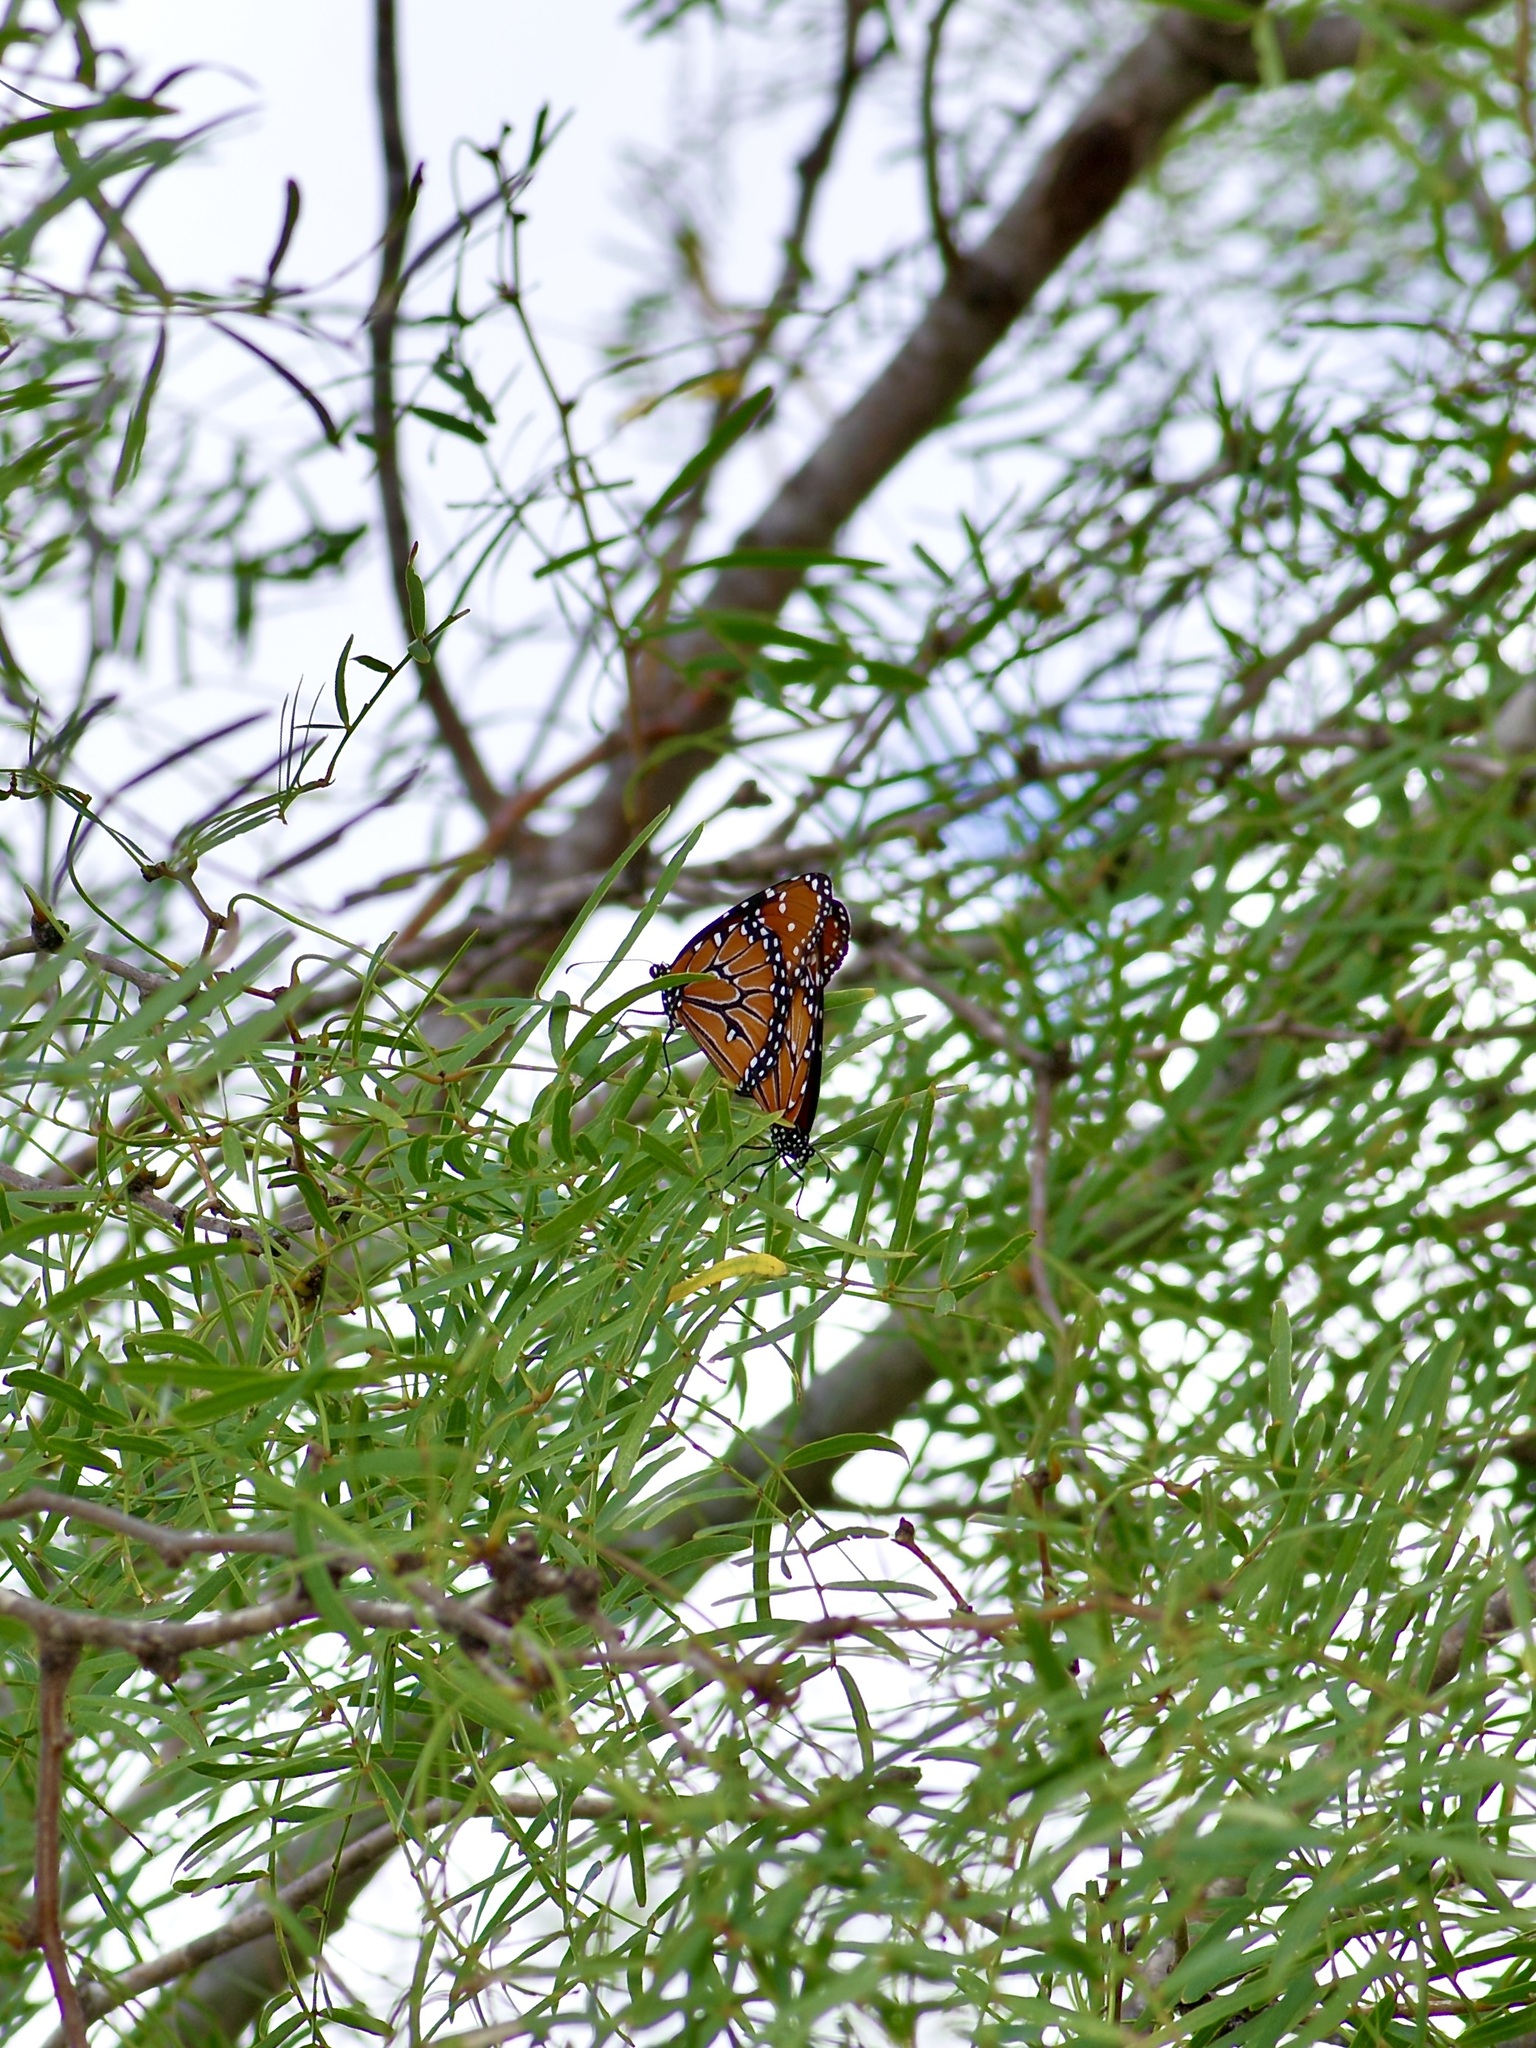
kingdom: Animalia
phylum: Arthropoda
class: Insecta
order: Lepidoptera
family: Nymphalidae
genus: Danaus
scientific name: Danaus gilippus
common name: Queen
